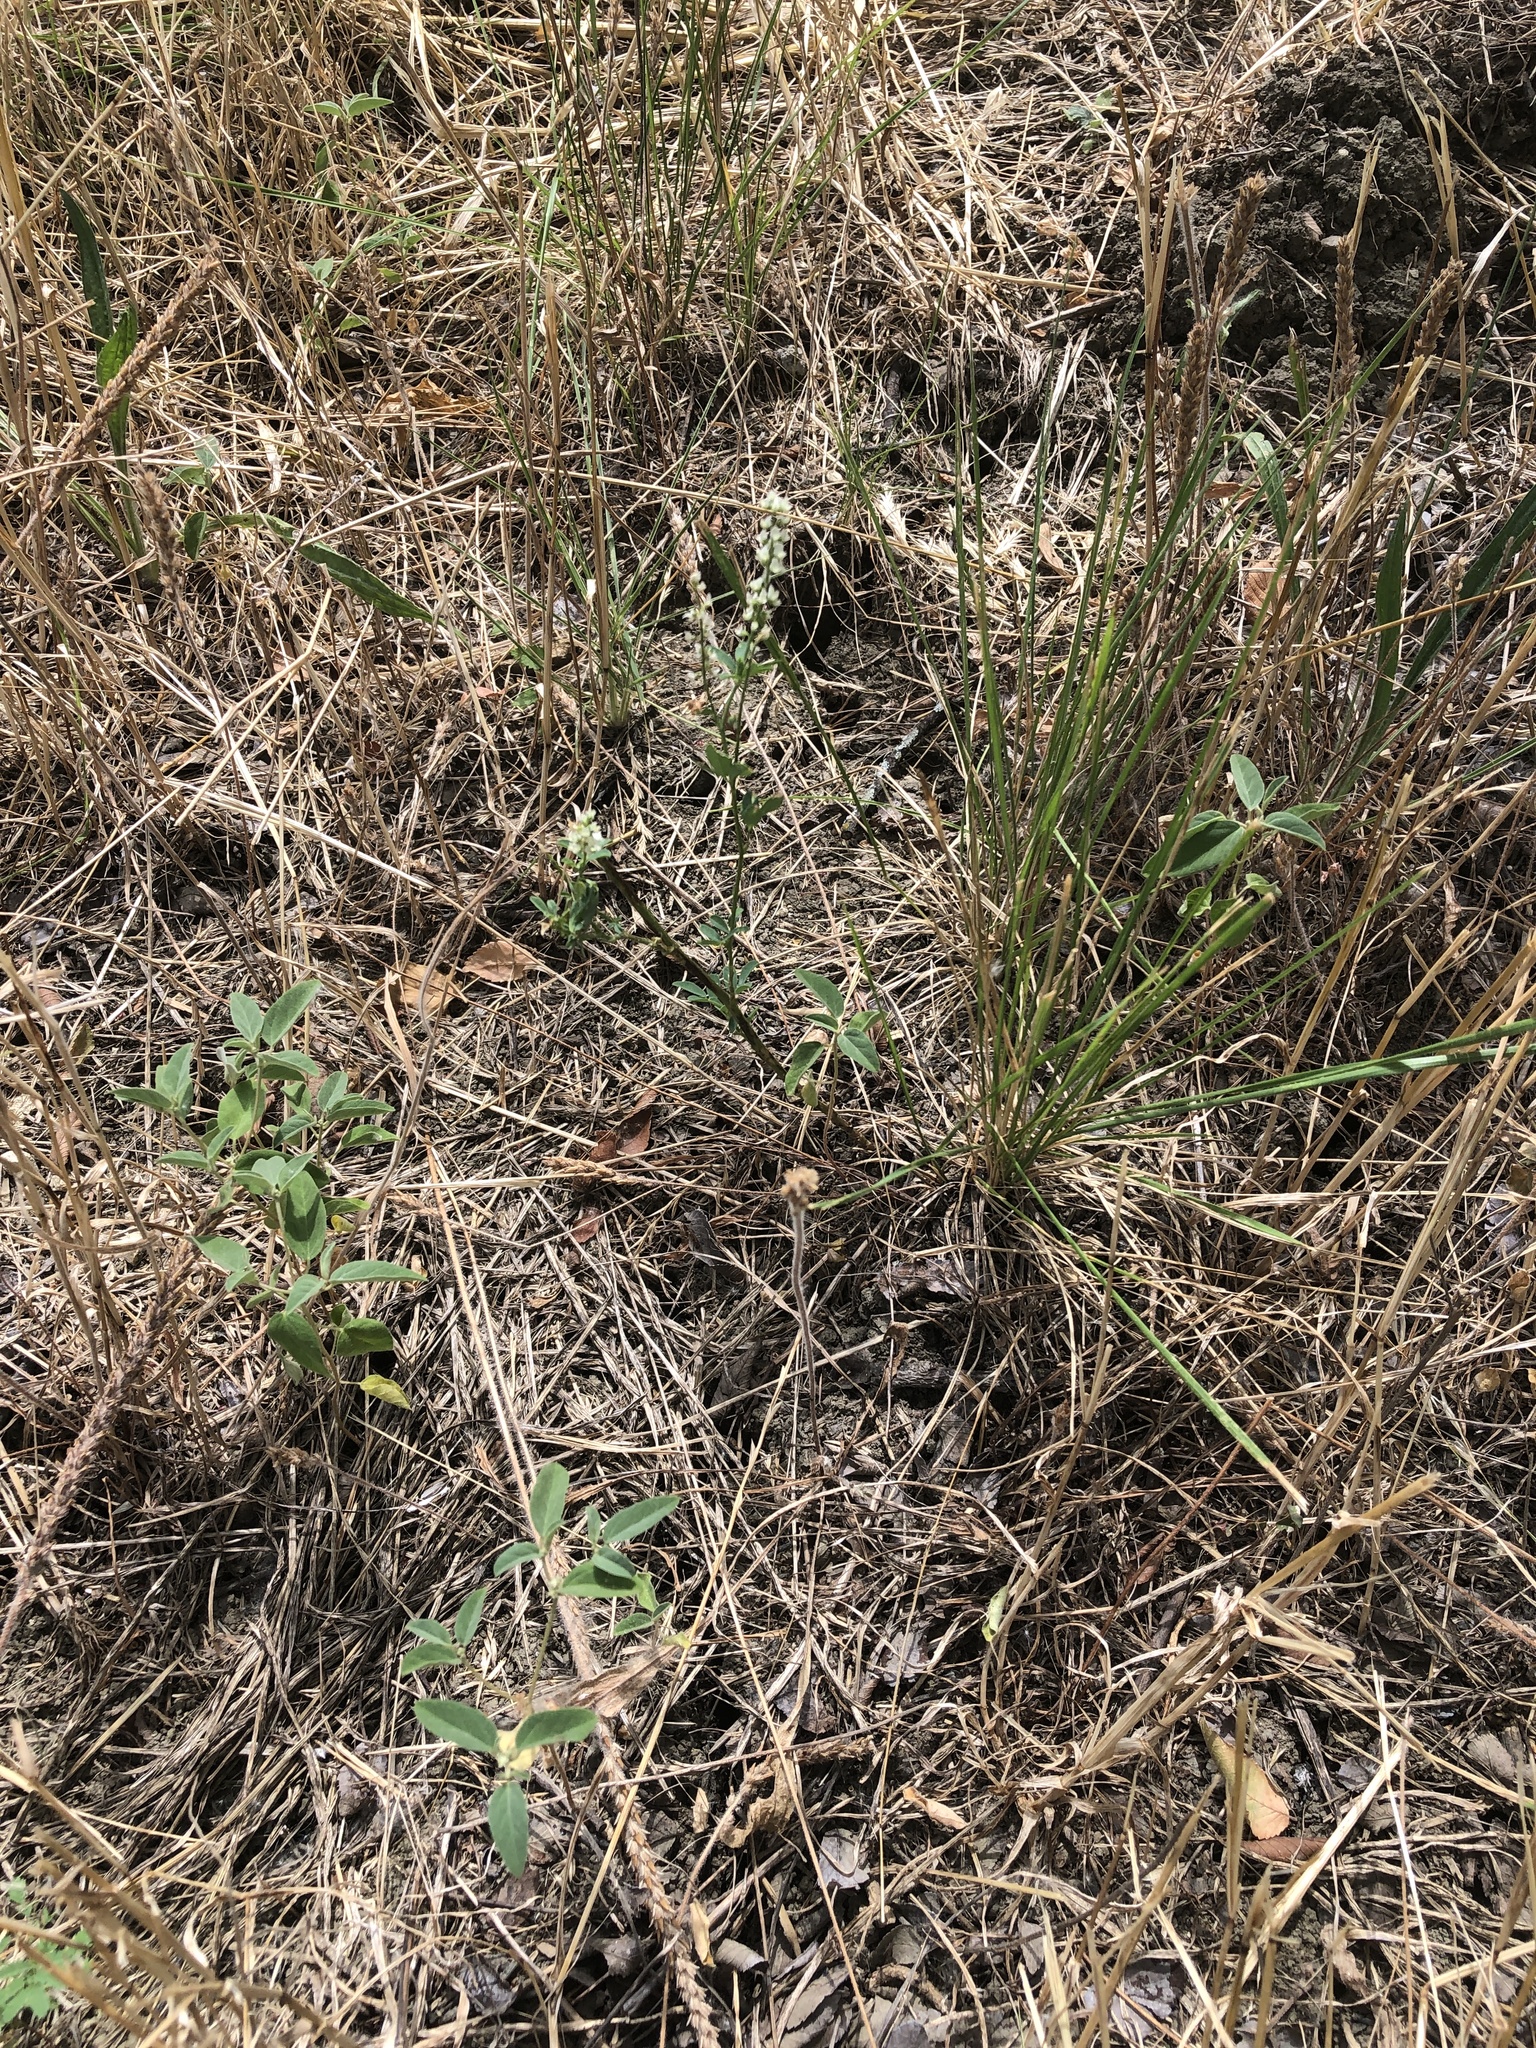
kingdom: Plantae
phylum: Tracheophyta
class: Magnoliopsida
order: Fabales
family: Fabaceae
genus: Melilotus
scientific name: Melilotus albus
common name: White melilot
